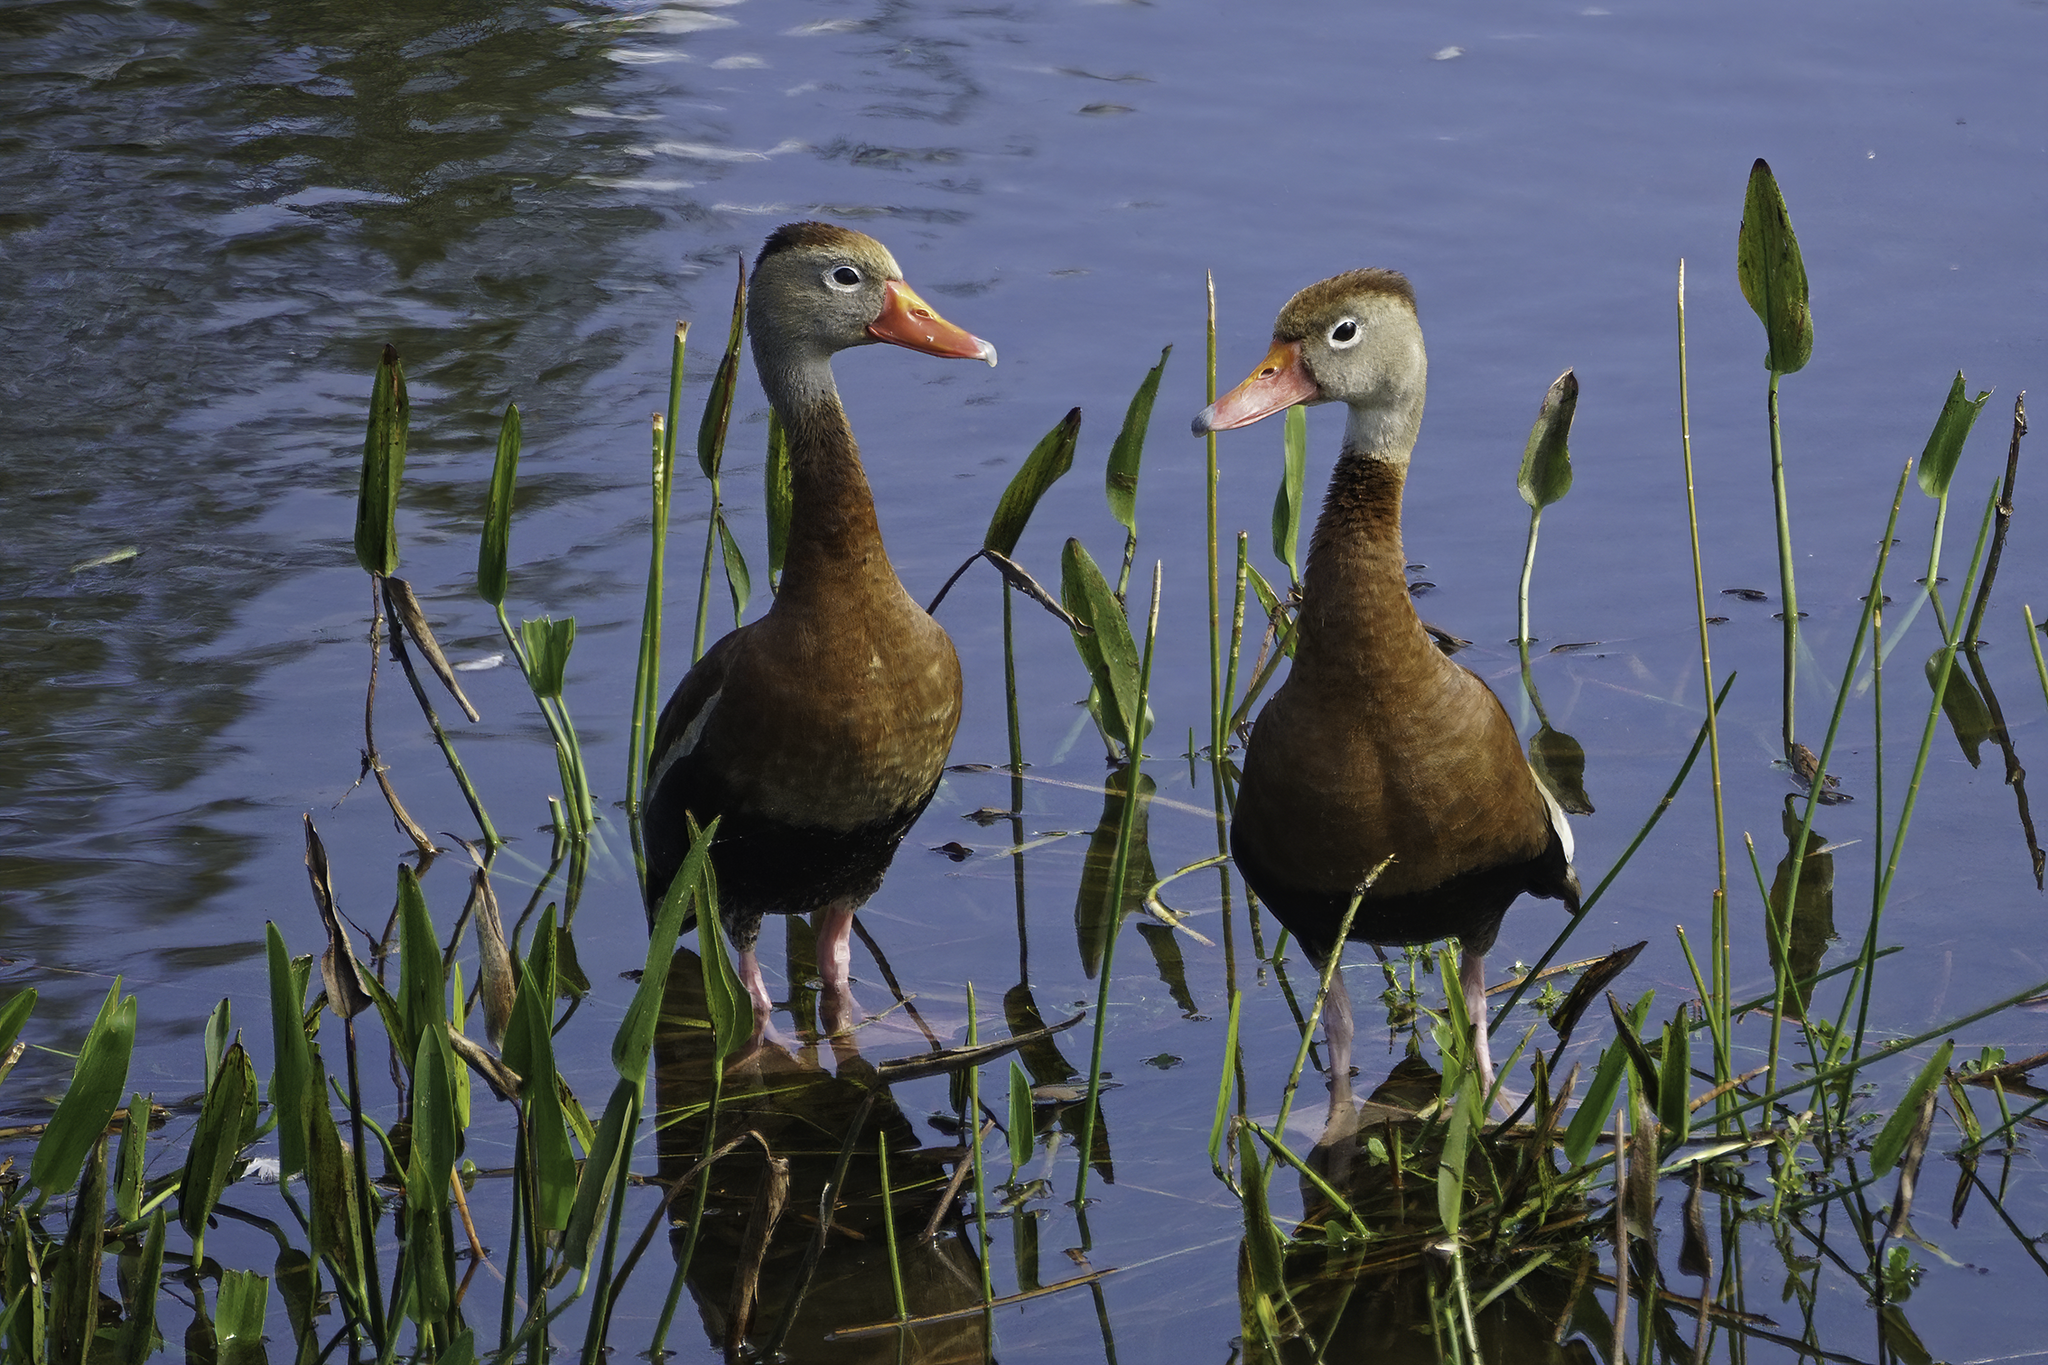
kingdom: Animalia
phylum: Chordata
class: Aves
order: Anseriformes
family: Anatidae
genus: Dendrocygna
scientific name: Dendrocygna autumnalis
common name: Black-bellied whistling duck
